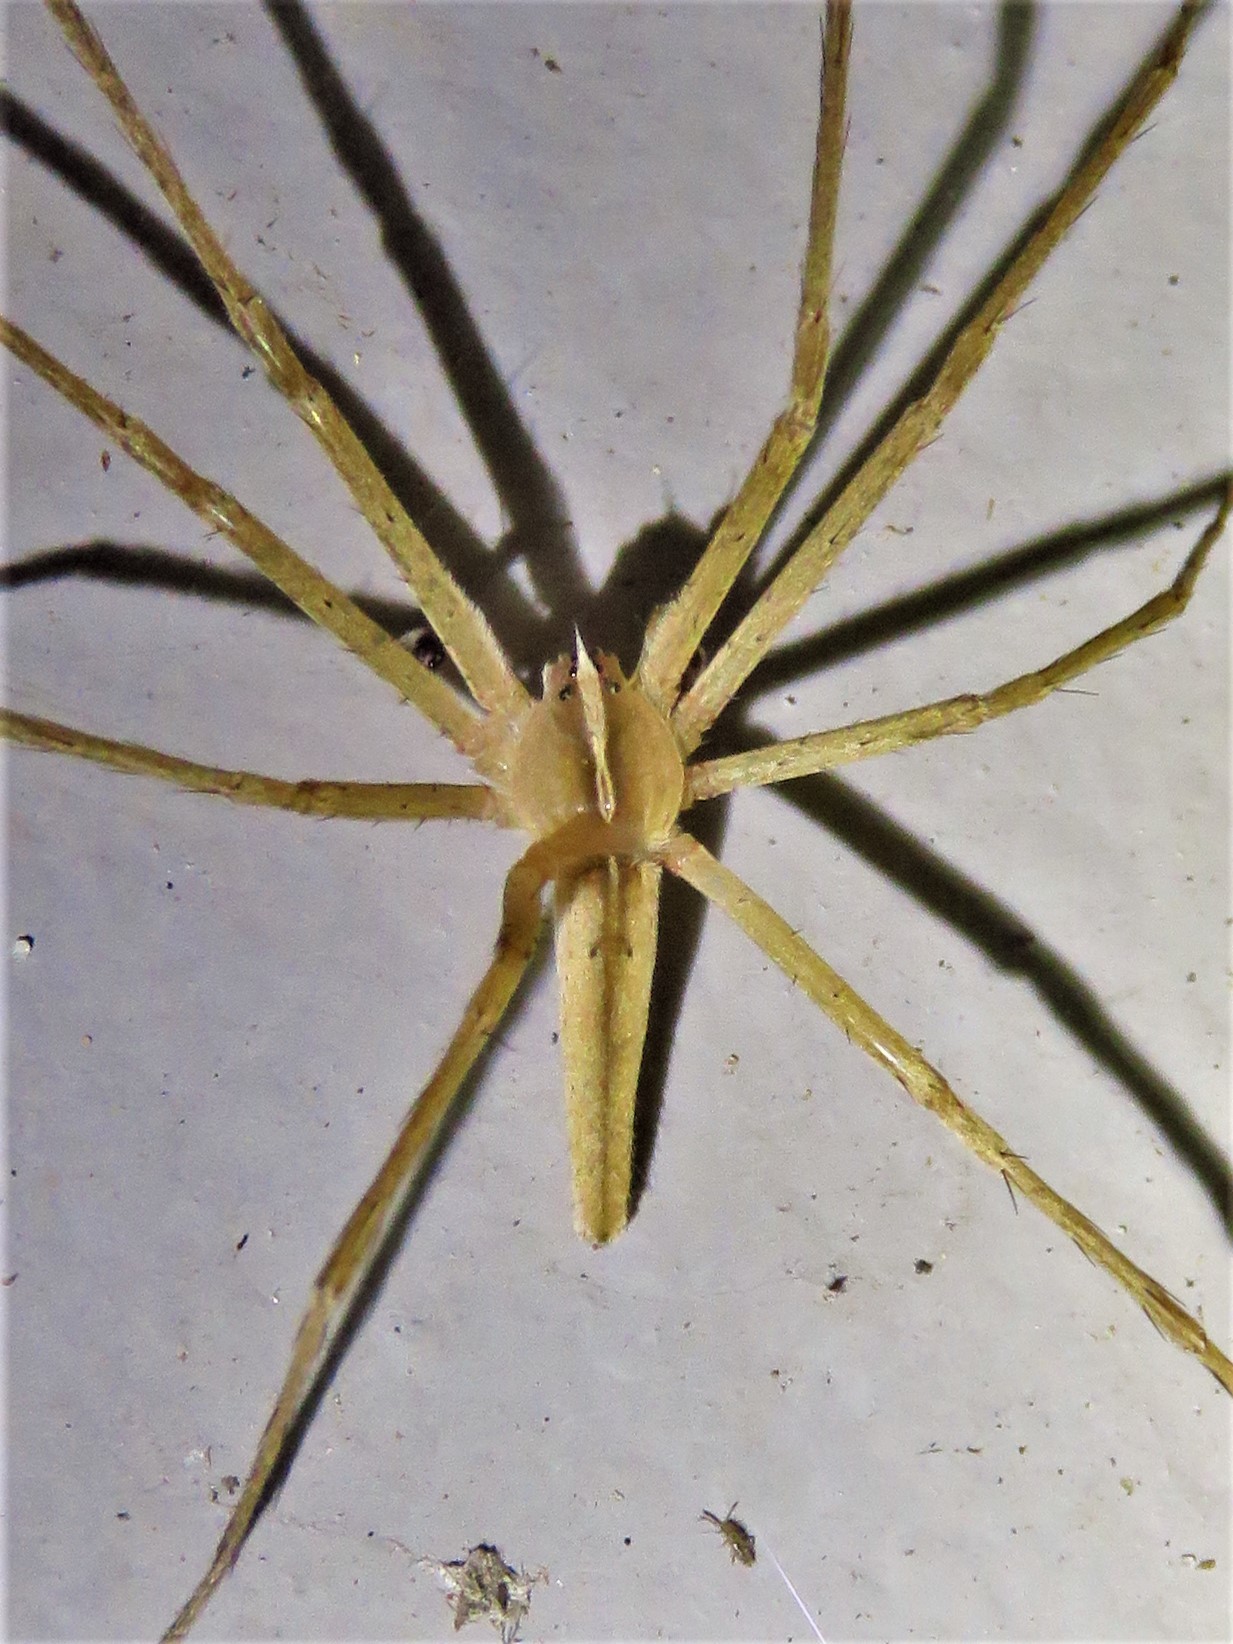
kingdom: Animalia
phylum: Arthropoda
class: Arachnida
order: Araneae
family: Pisauridae
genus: Pisaurina
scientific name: Pisaurina dubia
